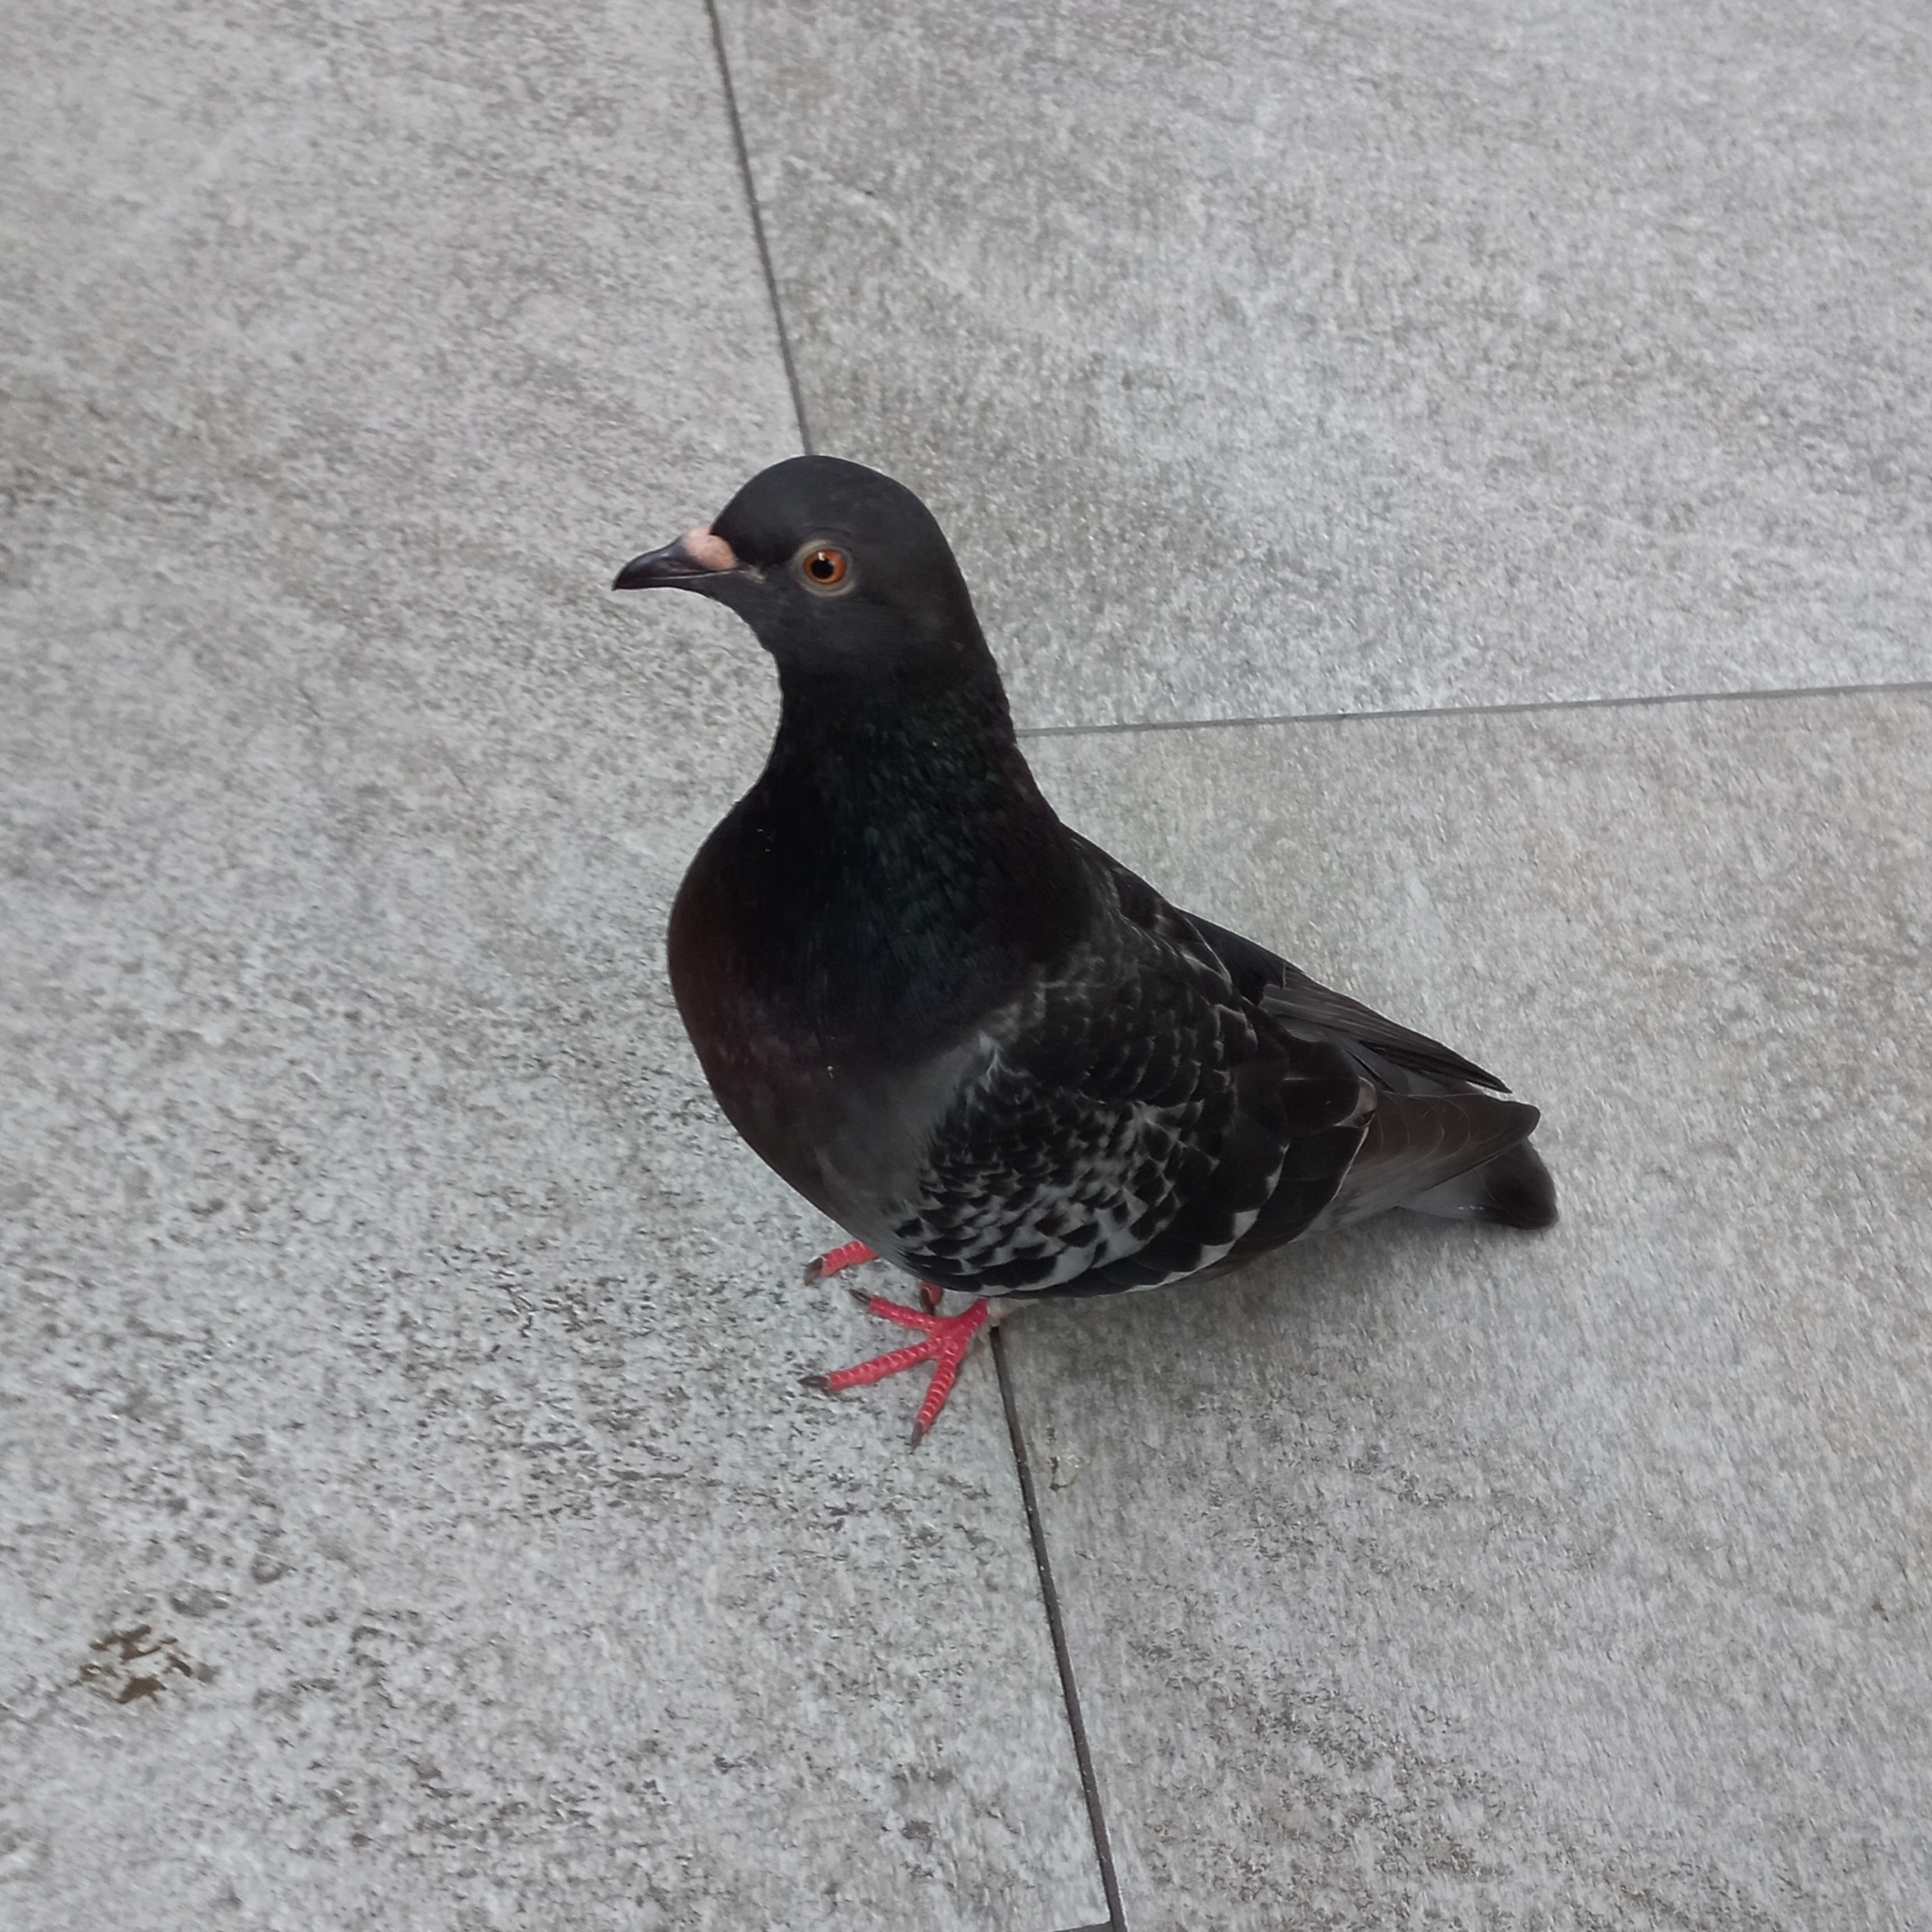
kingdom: Animalia
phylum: Chordata
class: Aves
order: Columbiformes
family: Columbidae
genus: Columba
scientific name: Columba livia
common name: Rock pigeon
